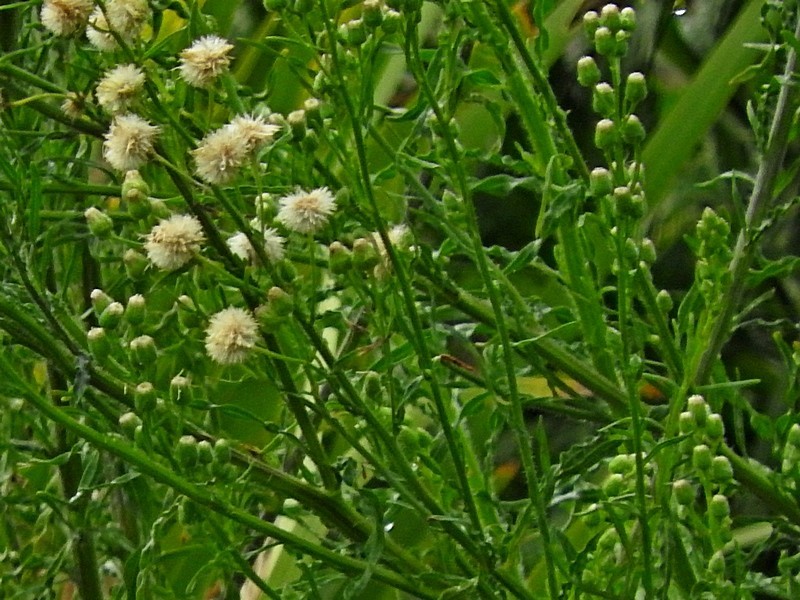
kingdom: Plantae
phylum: Tracheophyta
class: Magnoliopsida
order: Asterales
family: Asteraceae
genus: Erigeron
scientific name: Erigeron bonariensis
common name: Argentine fleabane
